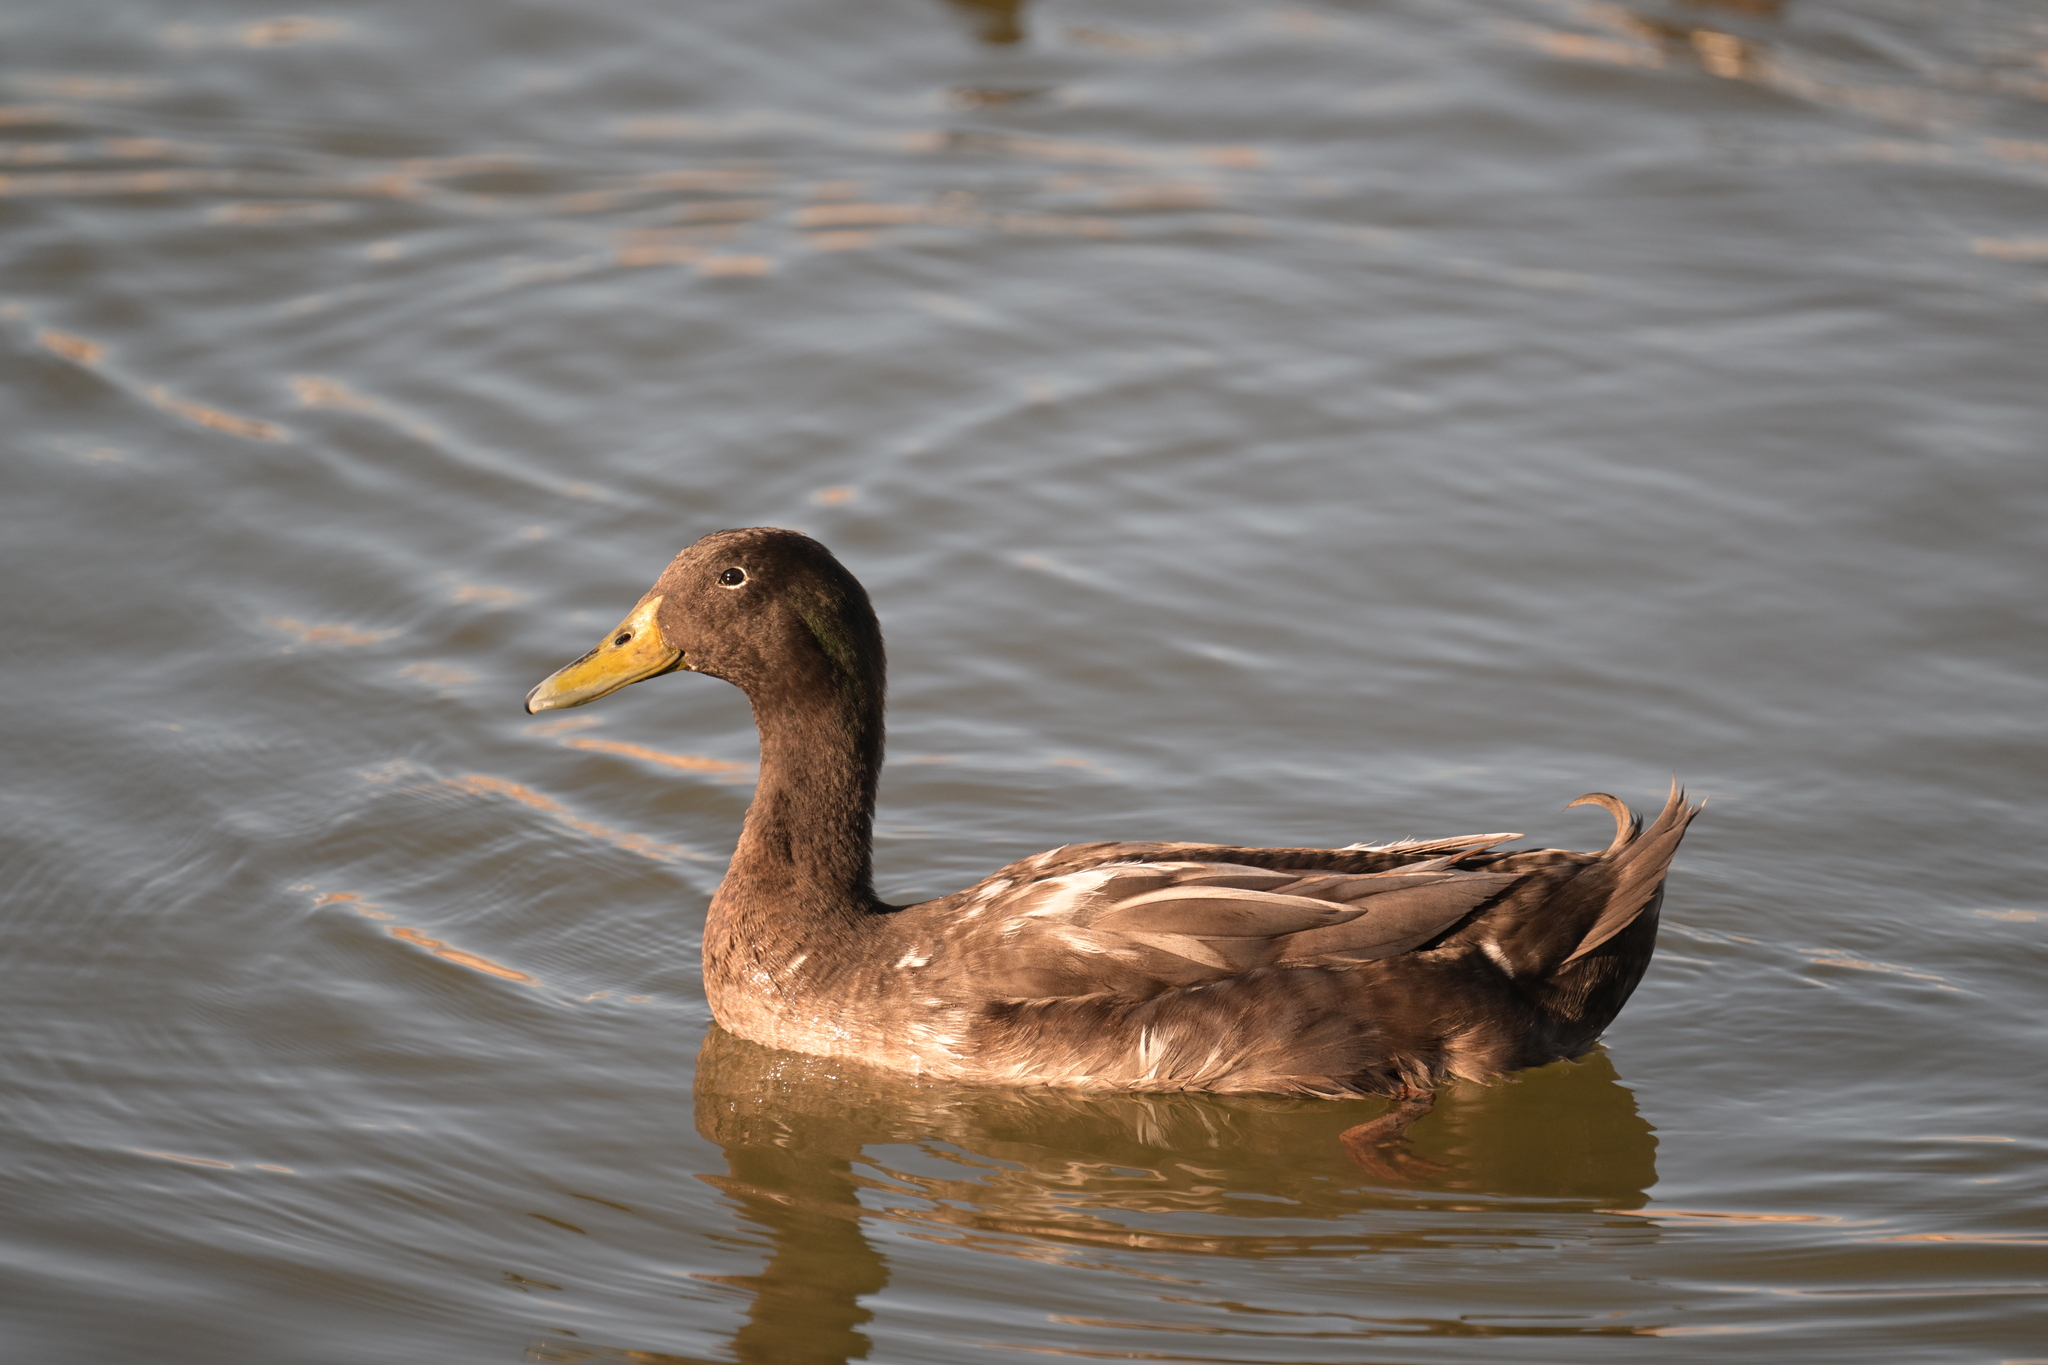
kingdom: Animalia
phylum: Chordata
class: Aves
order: Anseriformes
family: Anatidae
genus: Anas
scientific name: Anas platyrhynchos
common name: Mallard
